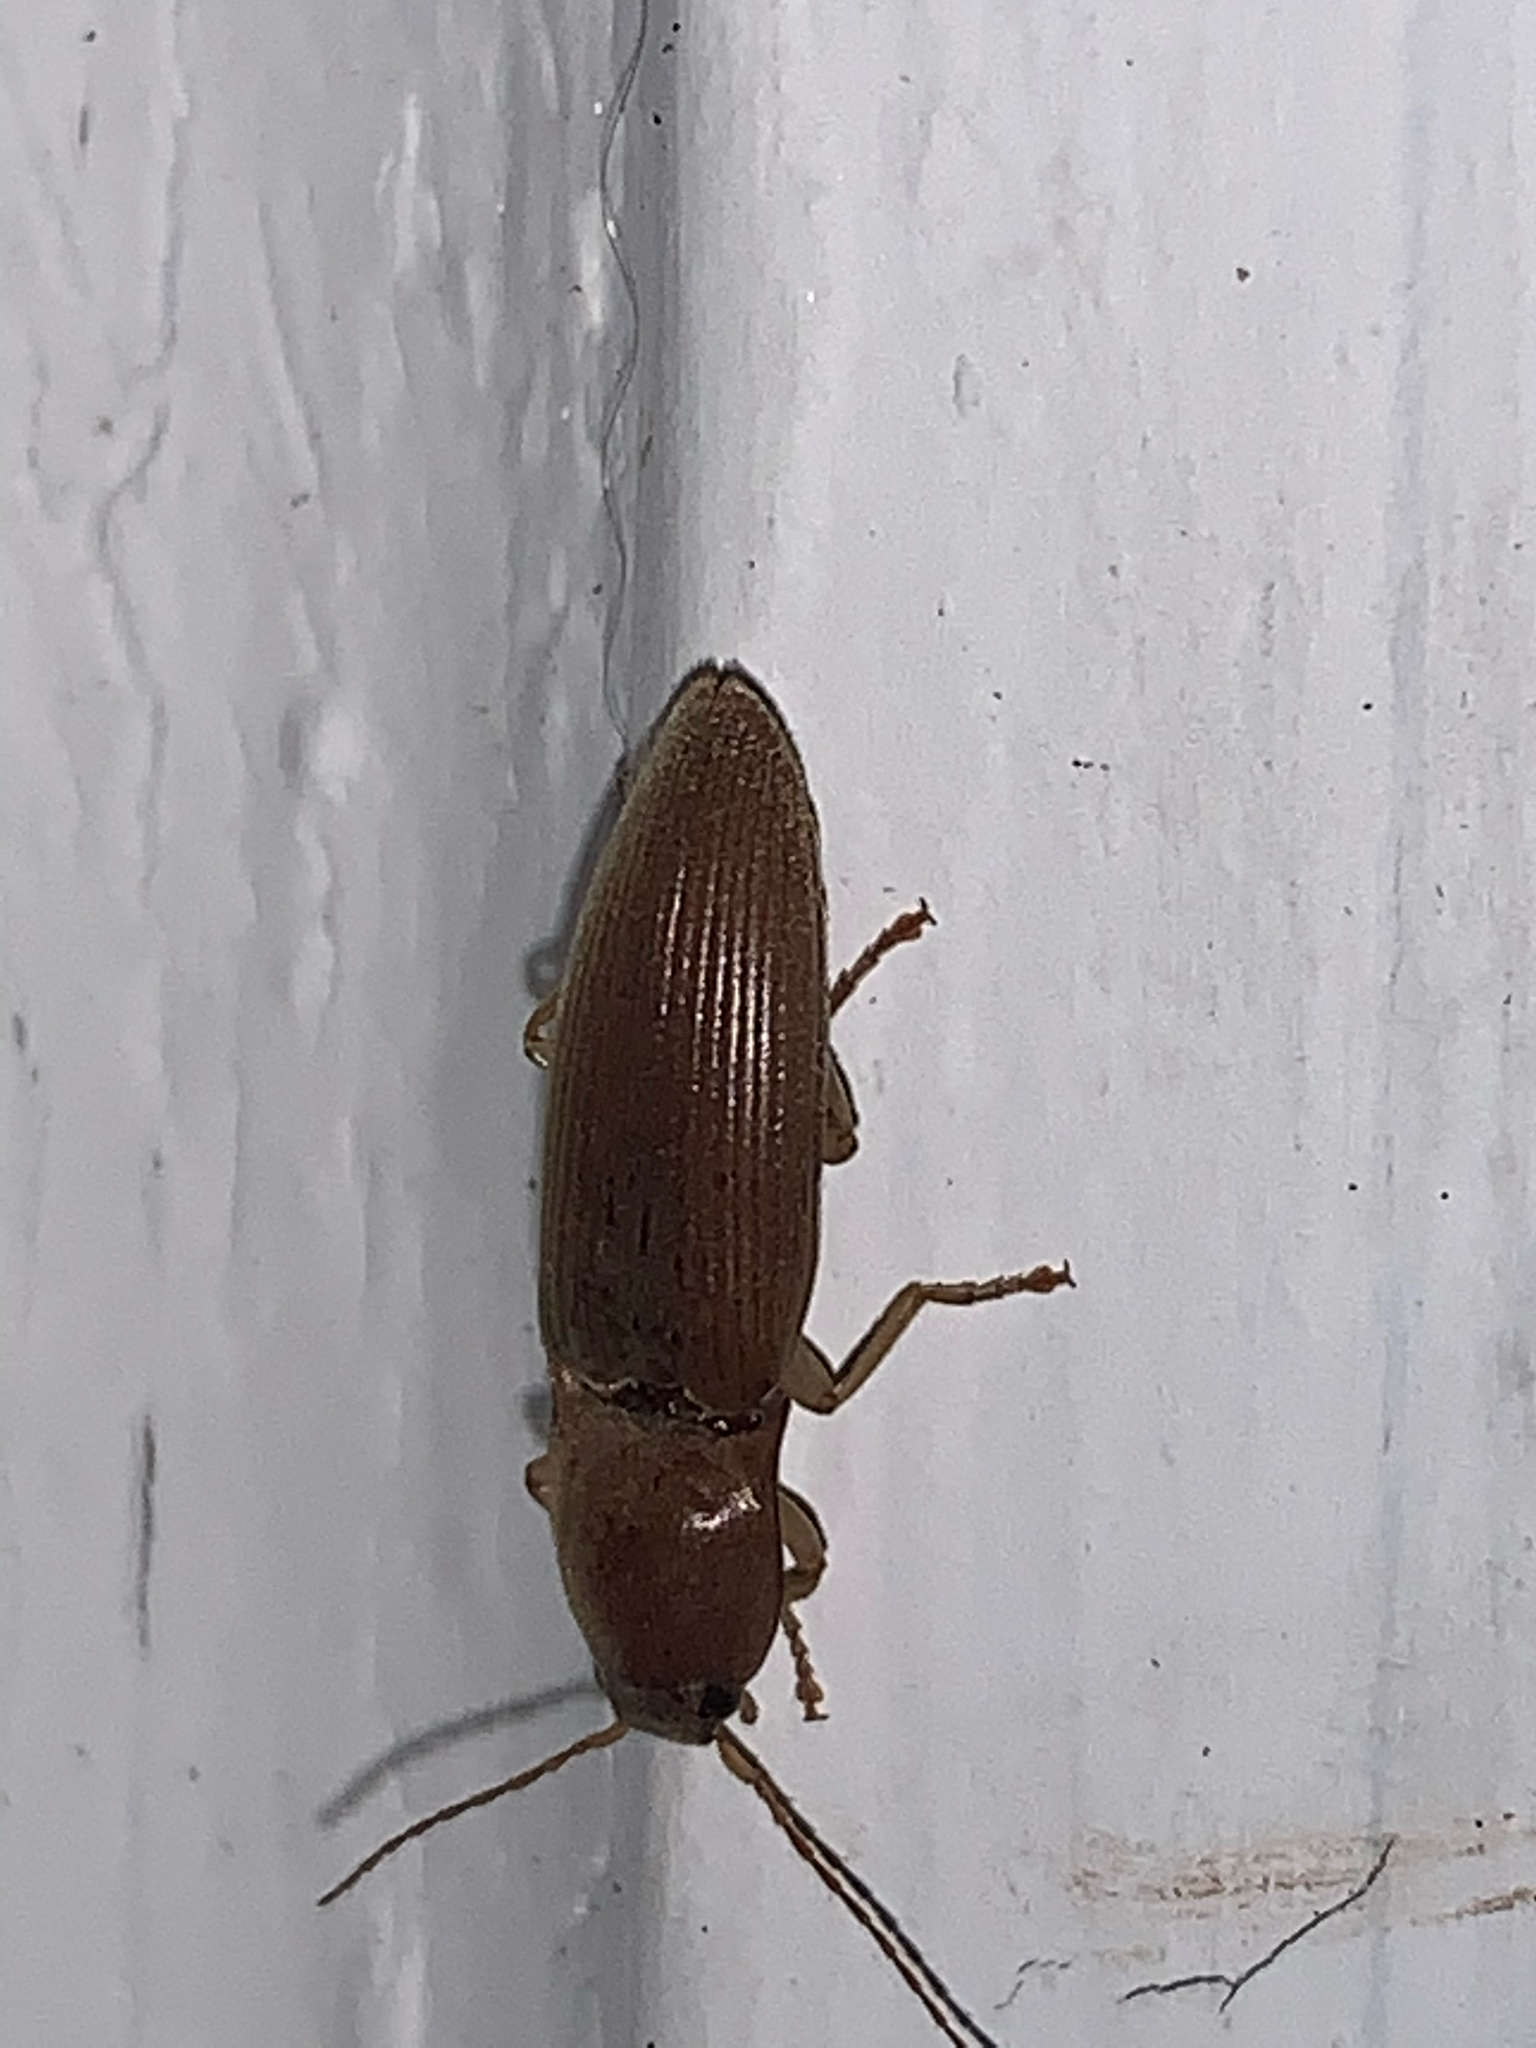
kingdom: Animalia
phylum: Arthropoda
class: Insecta
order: Coleoptera
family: Elateridae
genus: Monocrepidius
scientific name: Monocrepidius lividus
